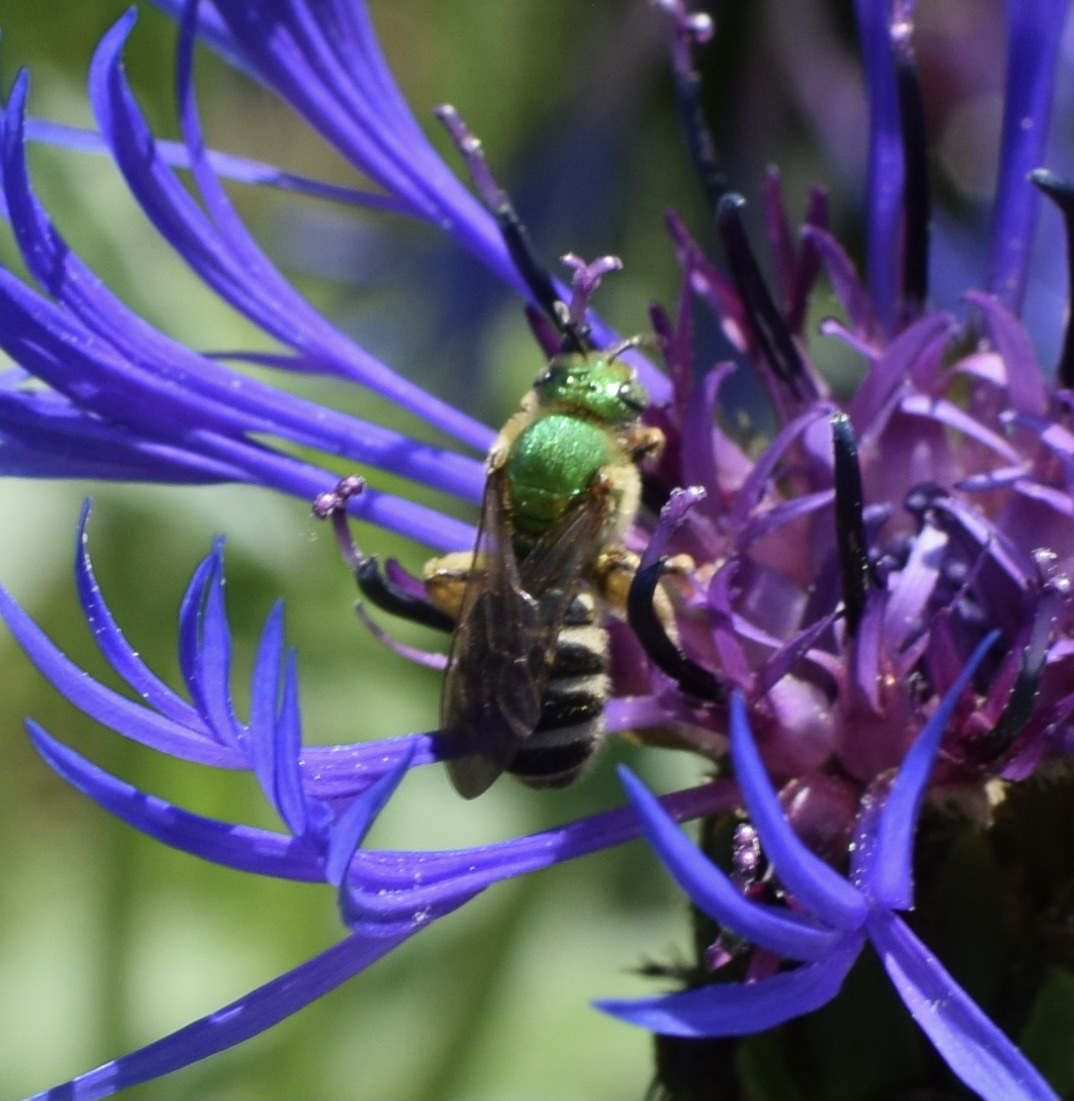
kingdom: Animalia
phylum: Arthropoda
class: Insecta
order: Hymenoptera
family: Halictidae
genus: Agapostemon
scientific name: Agapostemon virescens
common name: Bicolored striped sweat bee
